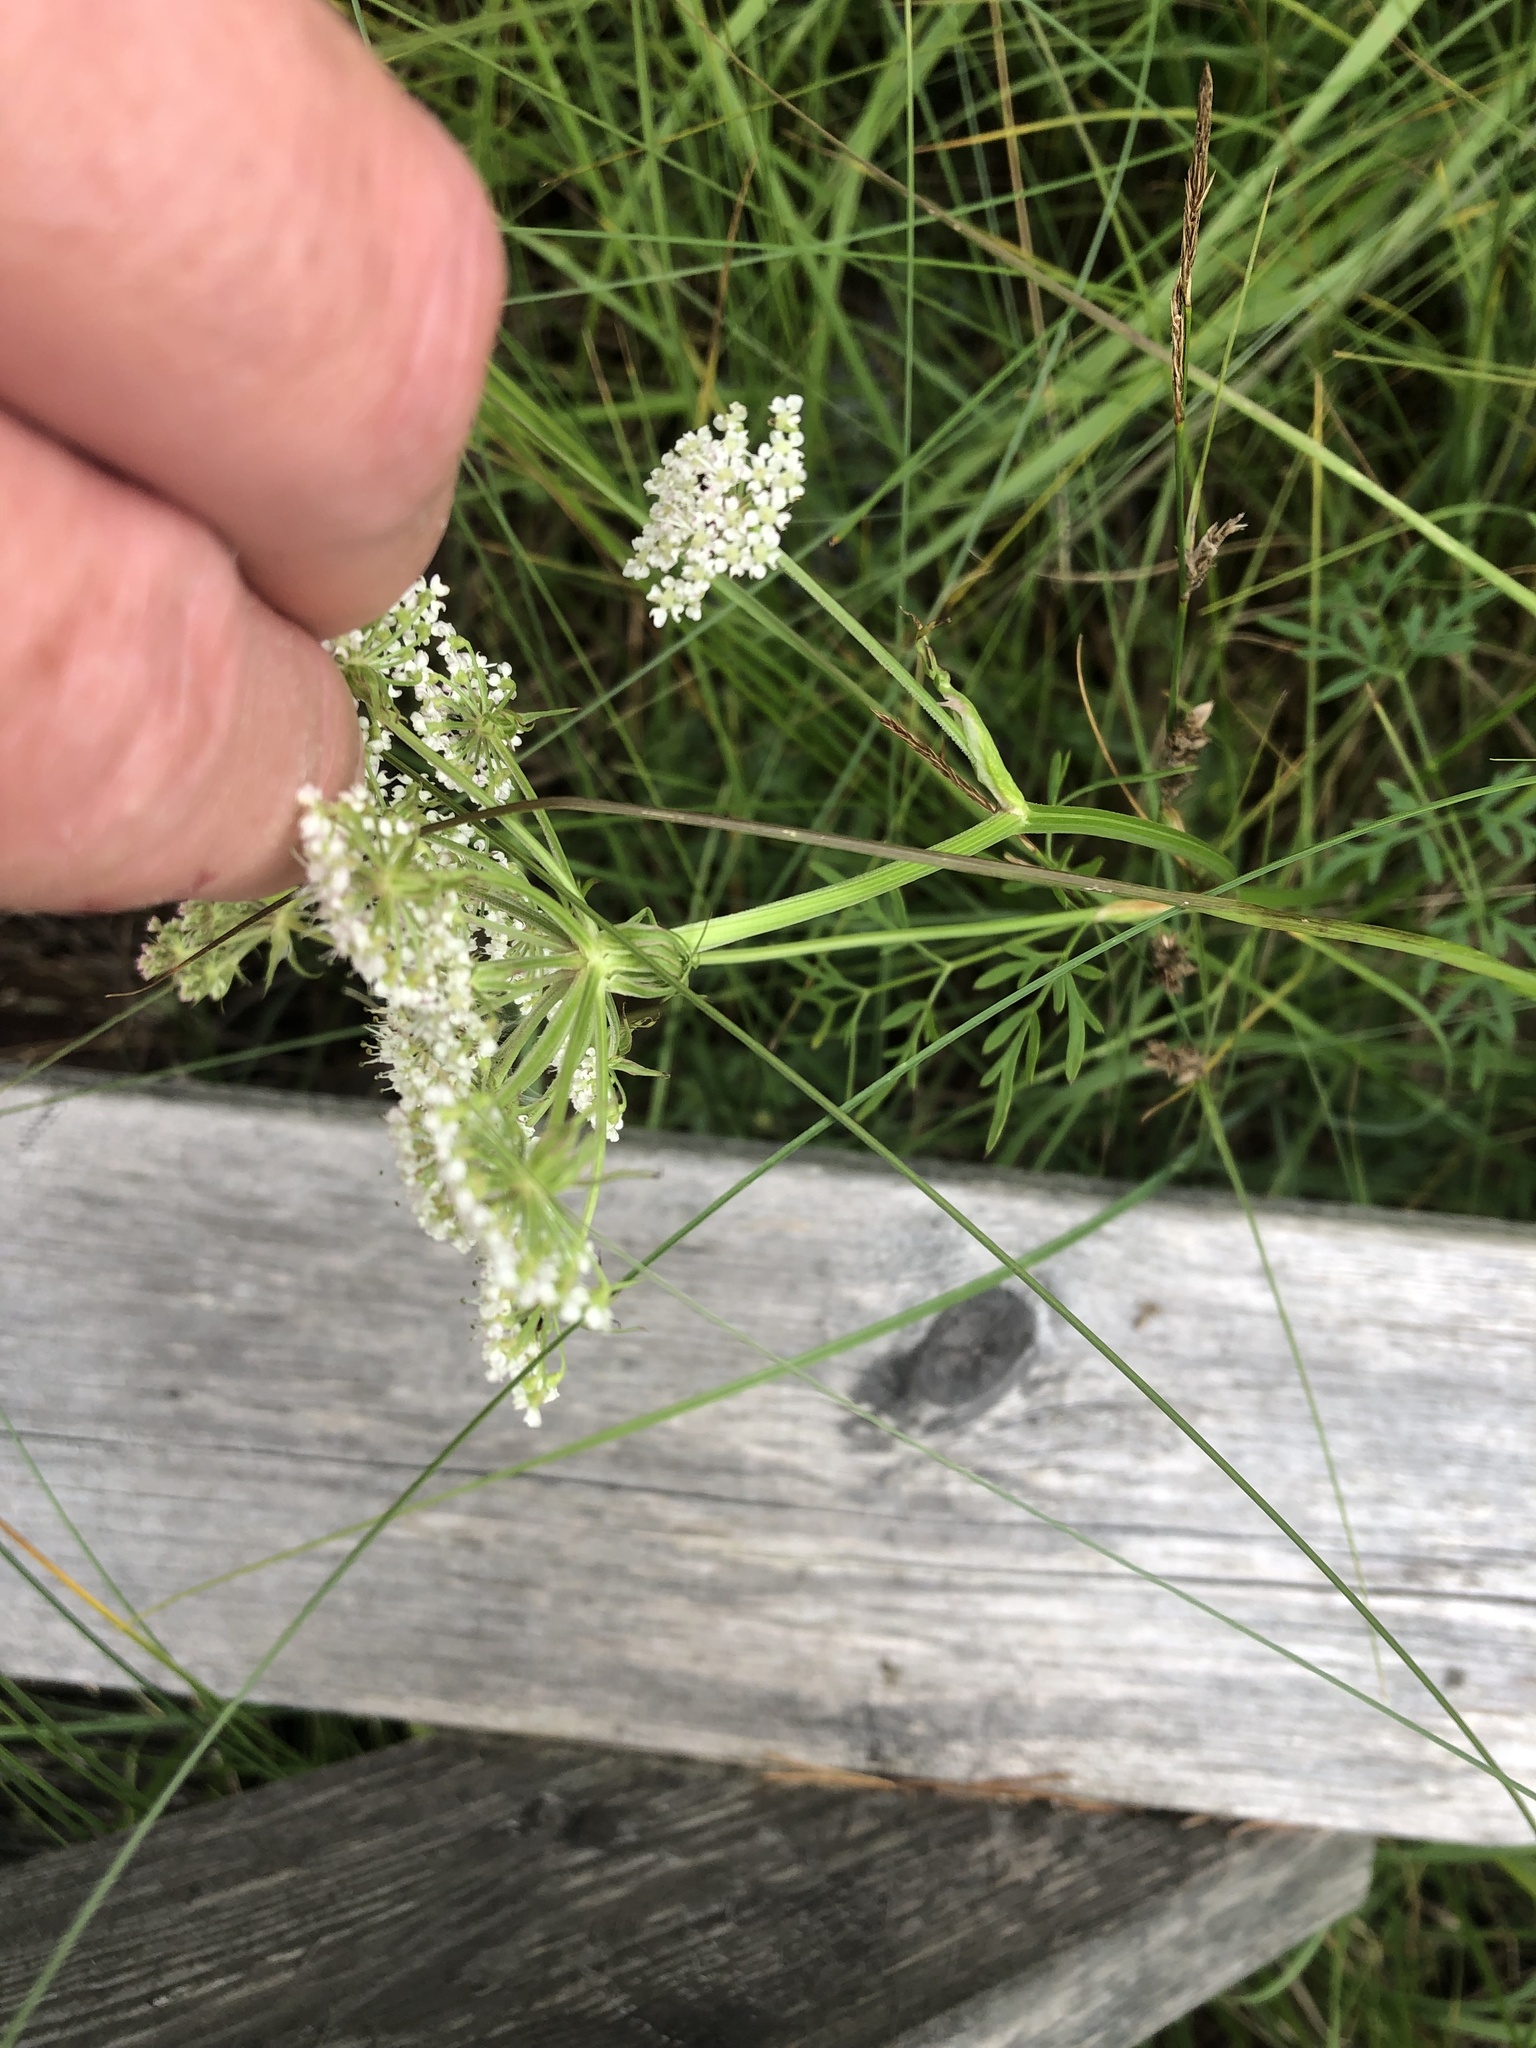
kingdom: Plantae
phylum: Tracheophyta
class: Magnoliopsida
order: Apiales
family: Apiaceae
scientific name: Apiaceae
